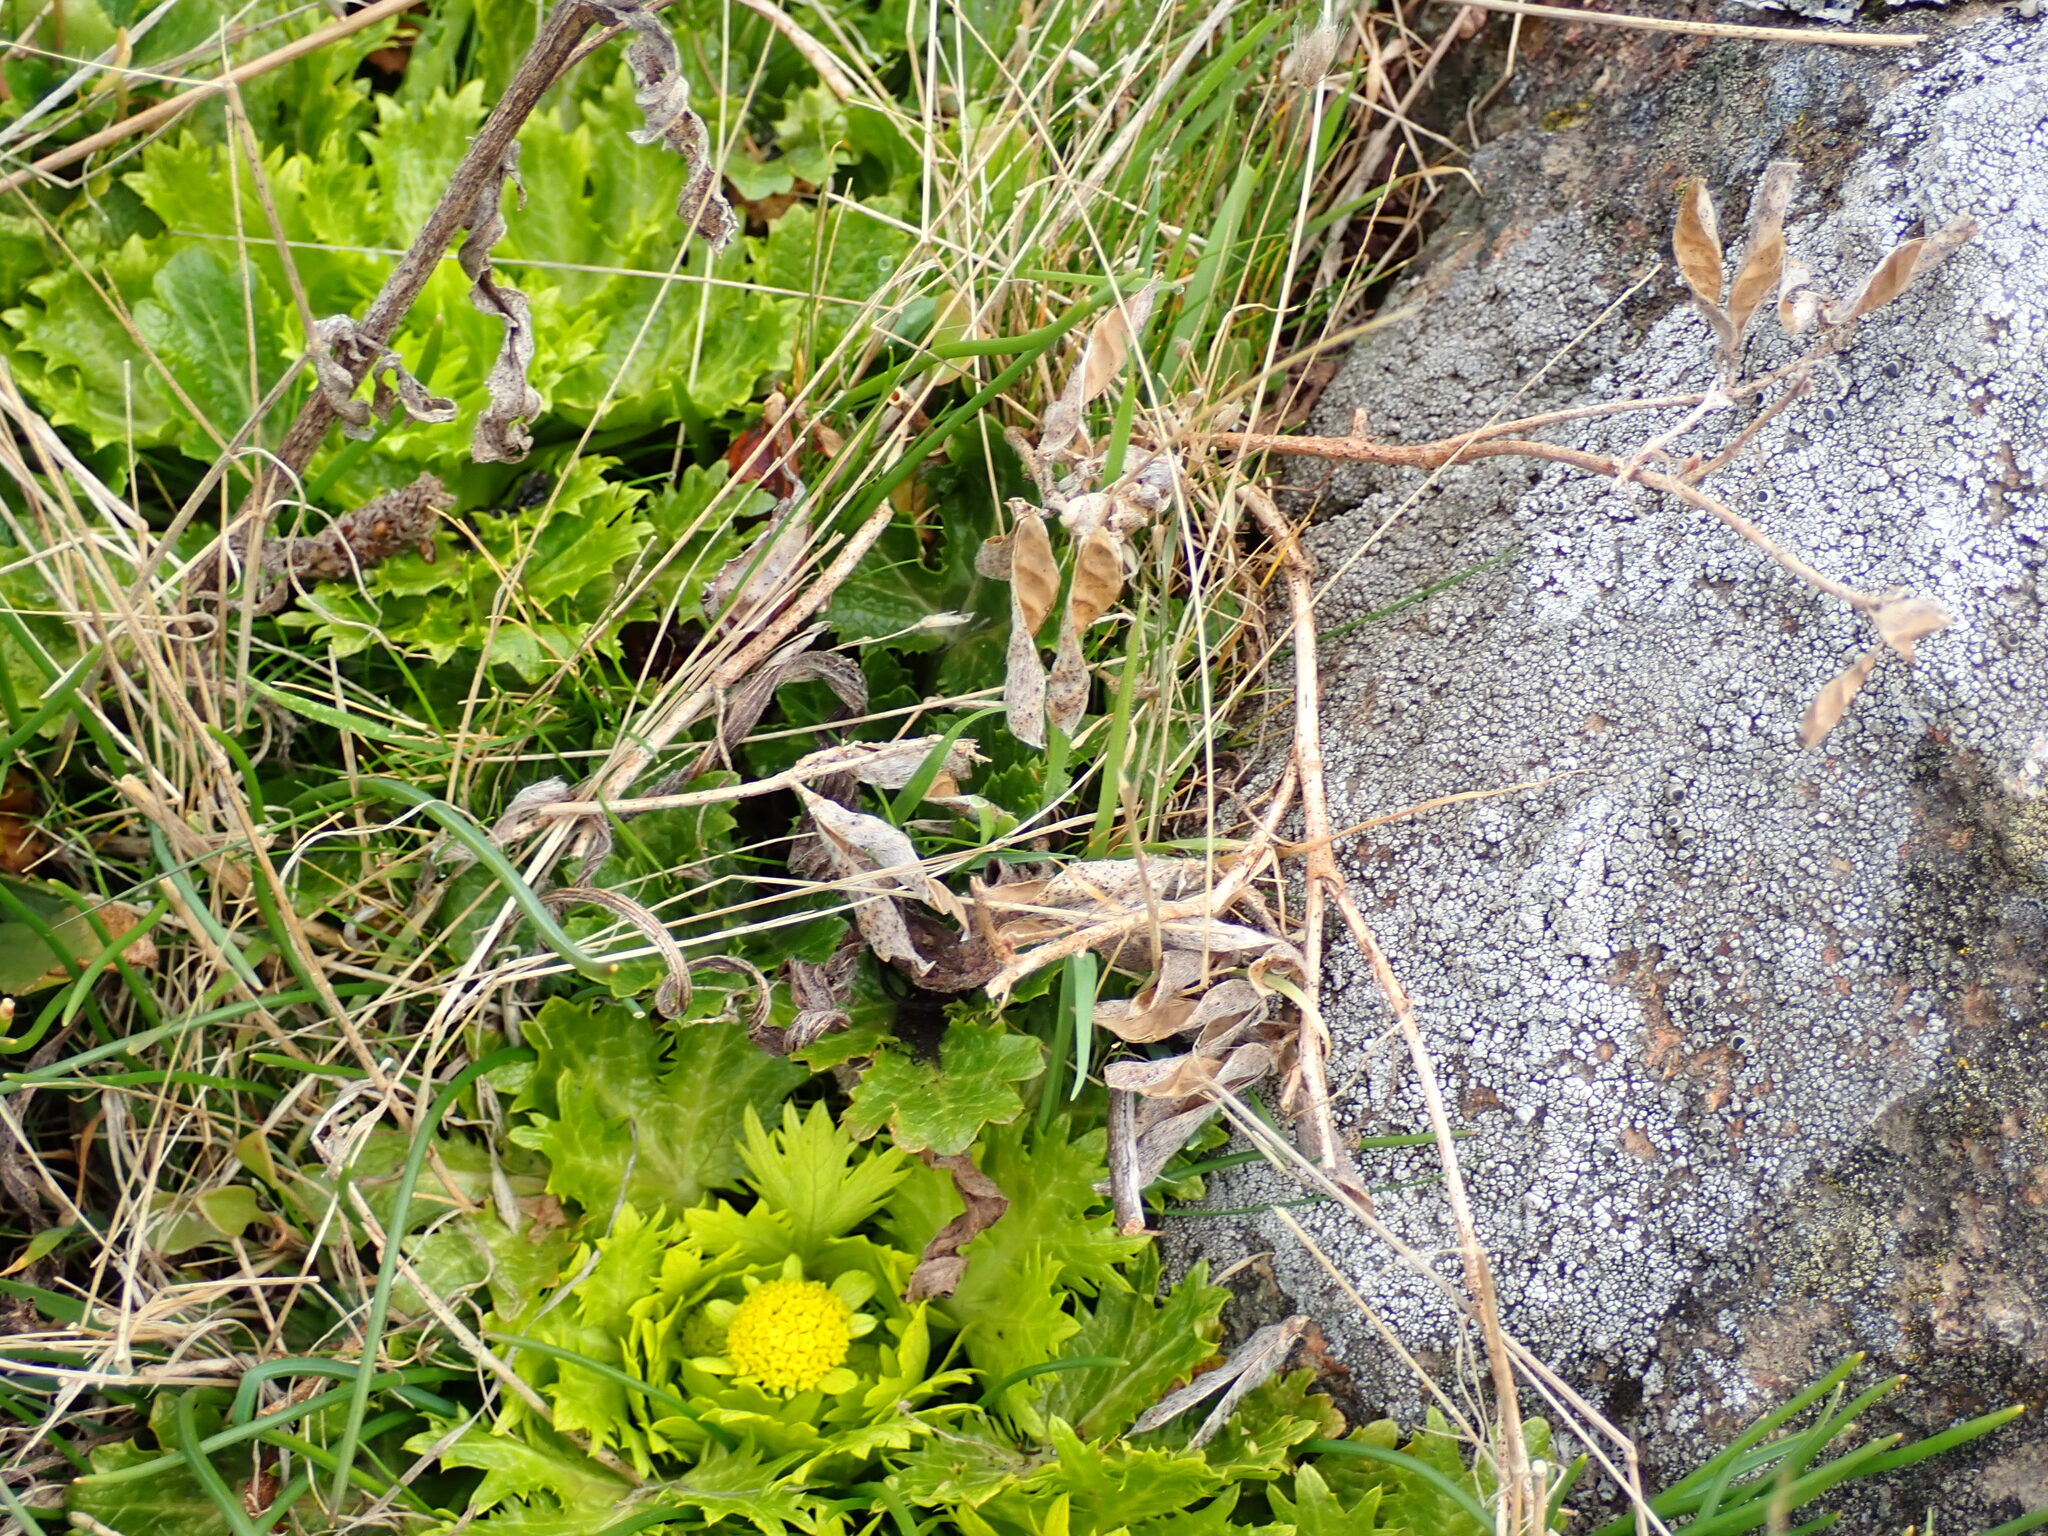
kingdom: Plantae
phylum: Tracheophyta
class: Magnoliopsida
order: Apiales
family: Apiaceae
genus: Sanicula
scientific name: Sanicula arctopoides
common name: Footsteps-of-spring
